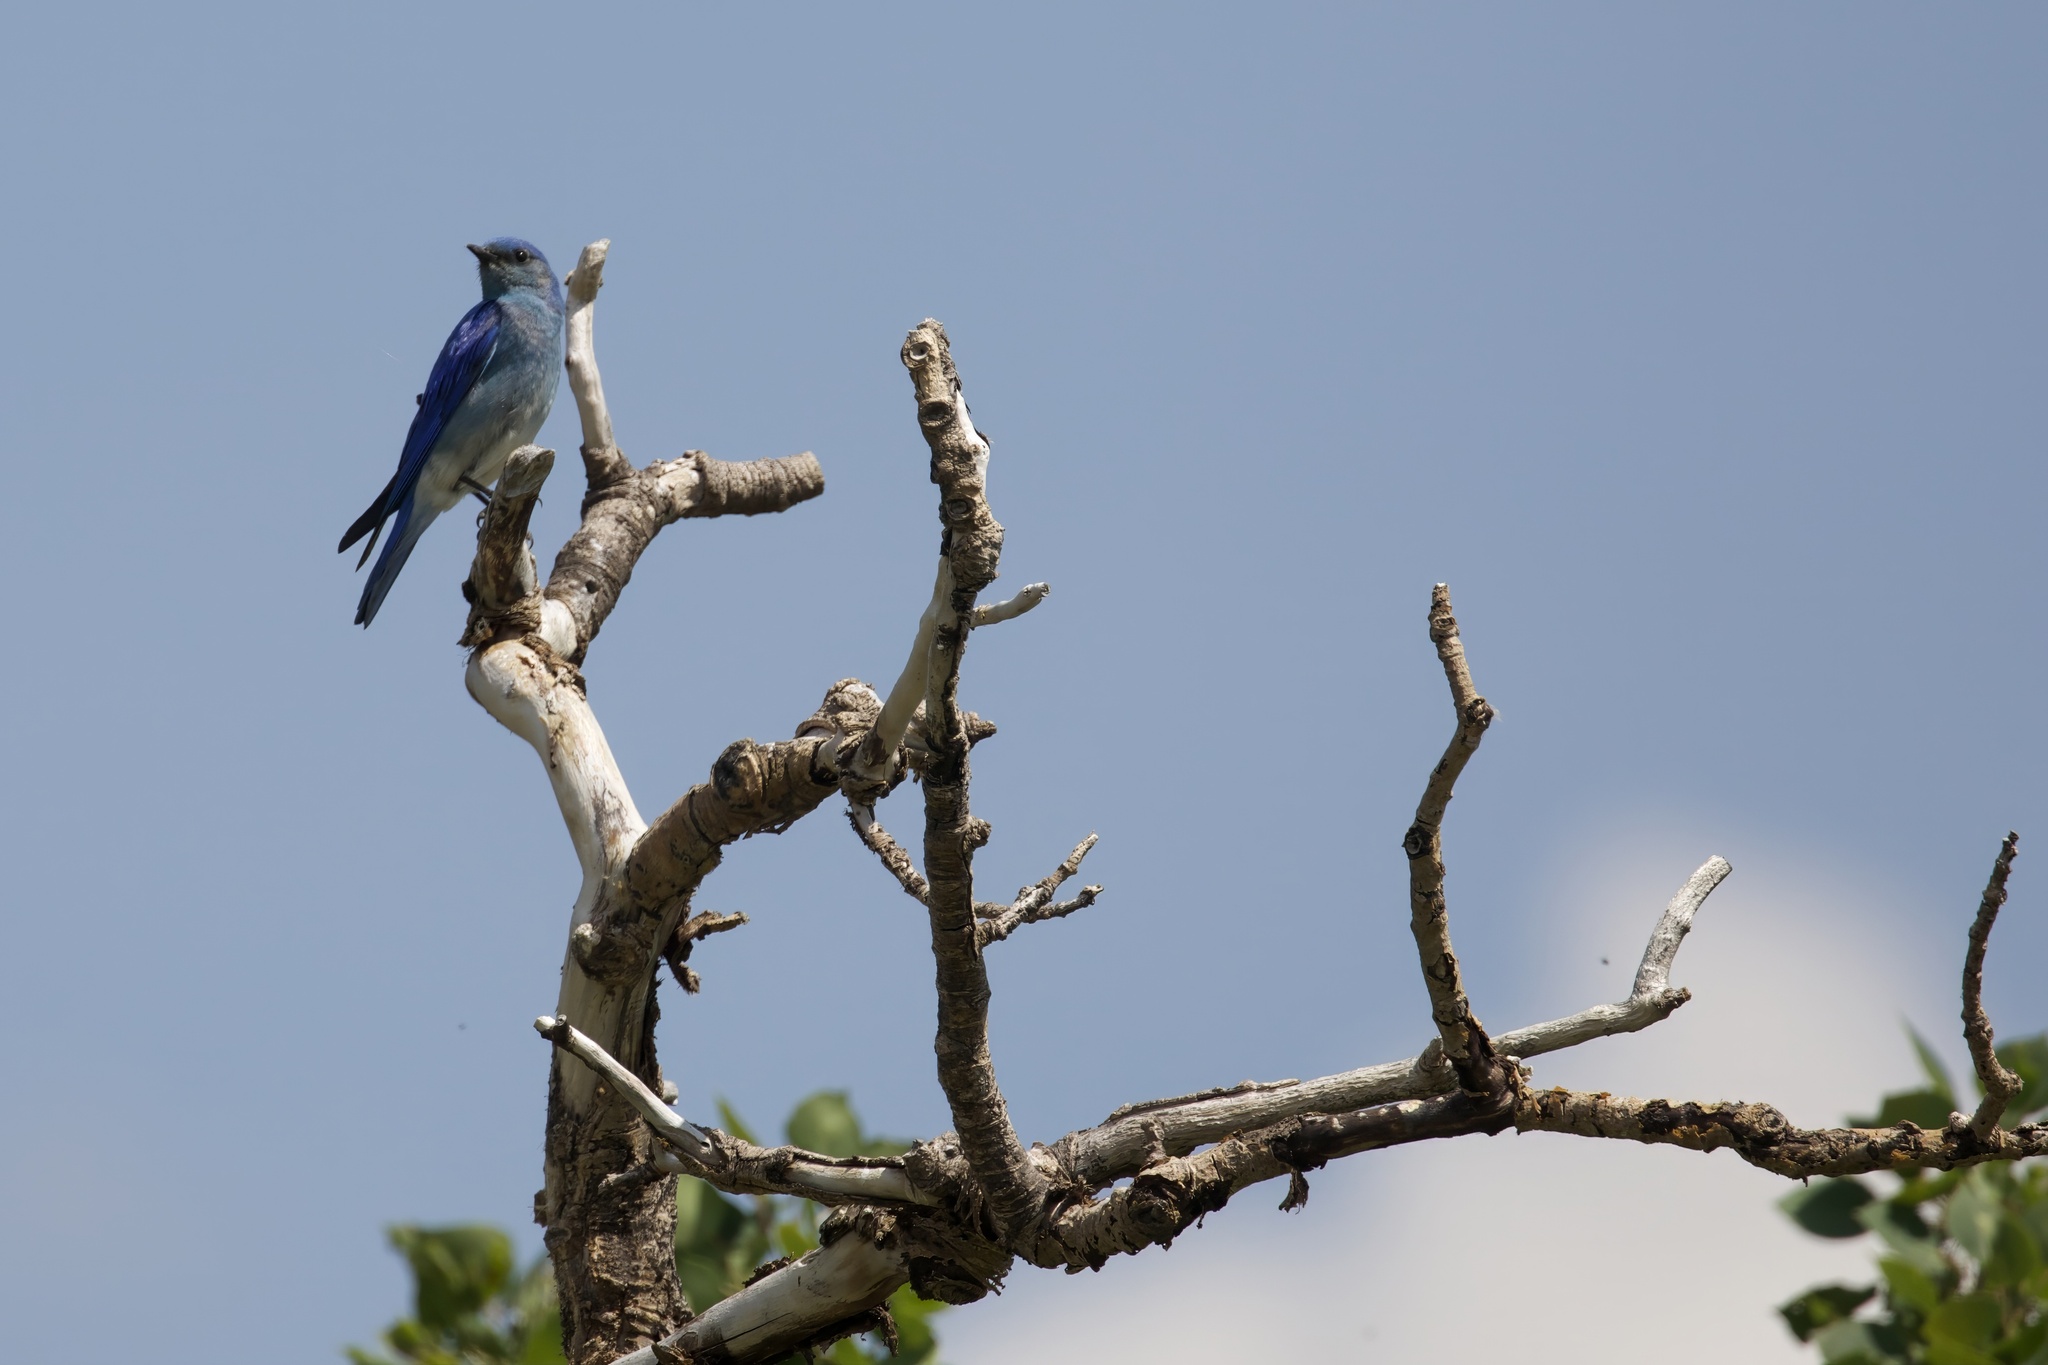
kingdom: Animalia
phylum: Chordata
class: Aves
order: Passeriformes
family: Turdidae
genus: Sialia
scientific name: Sialia currucoides
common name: Mountain bluebird
